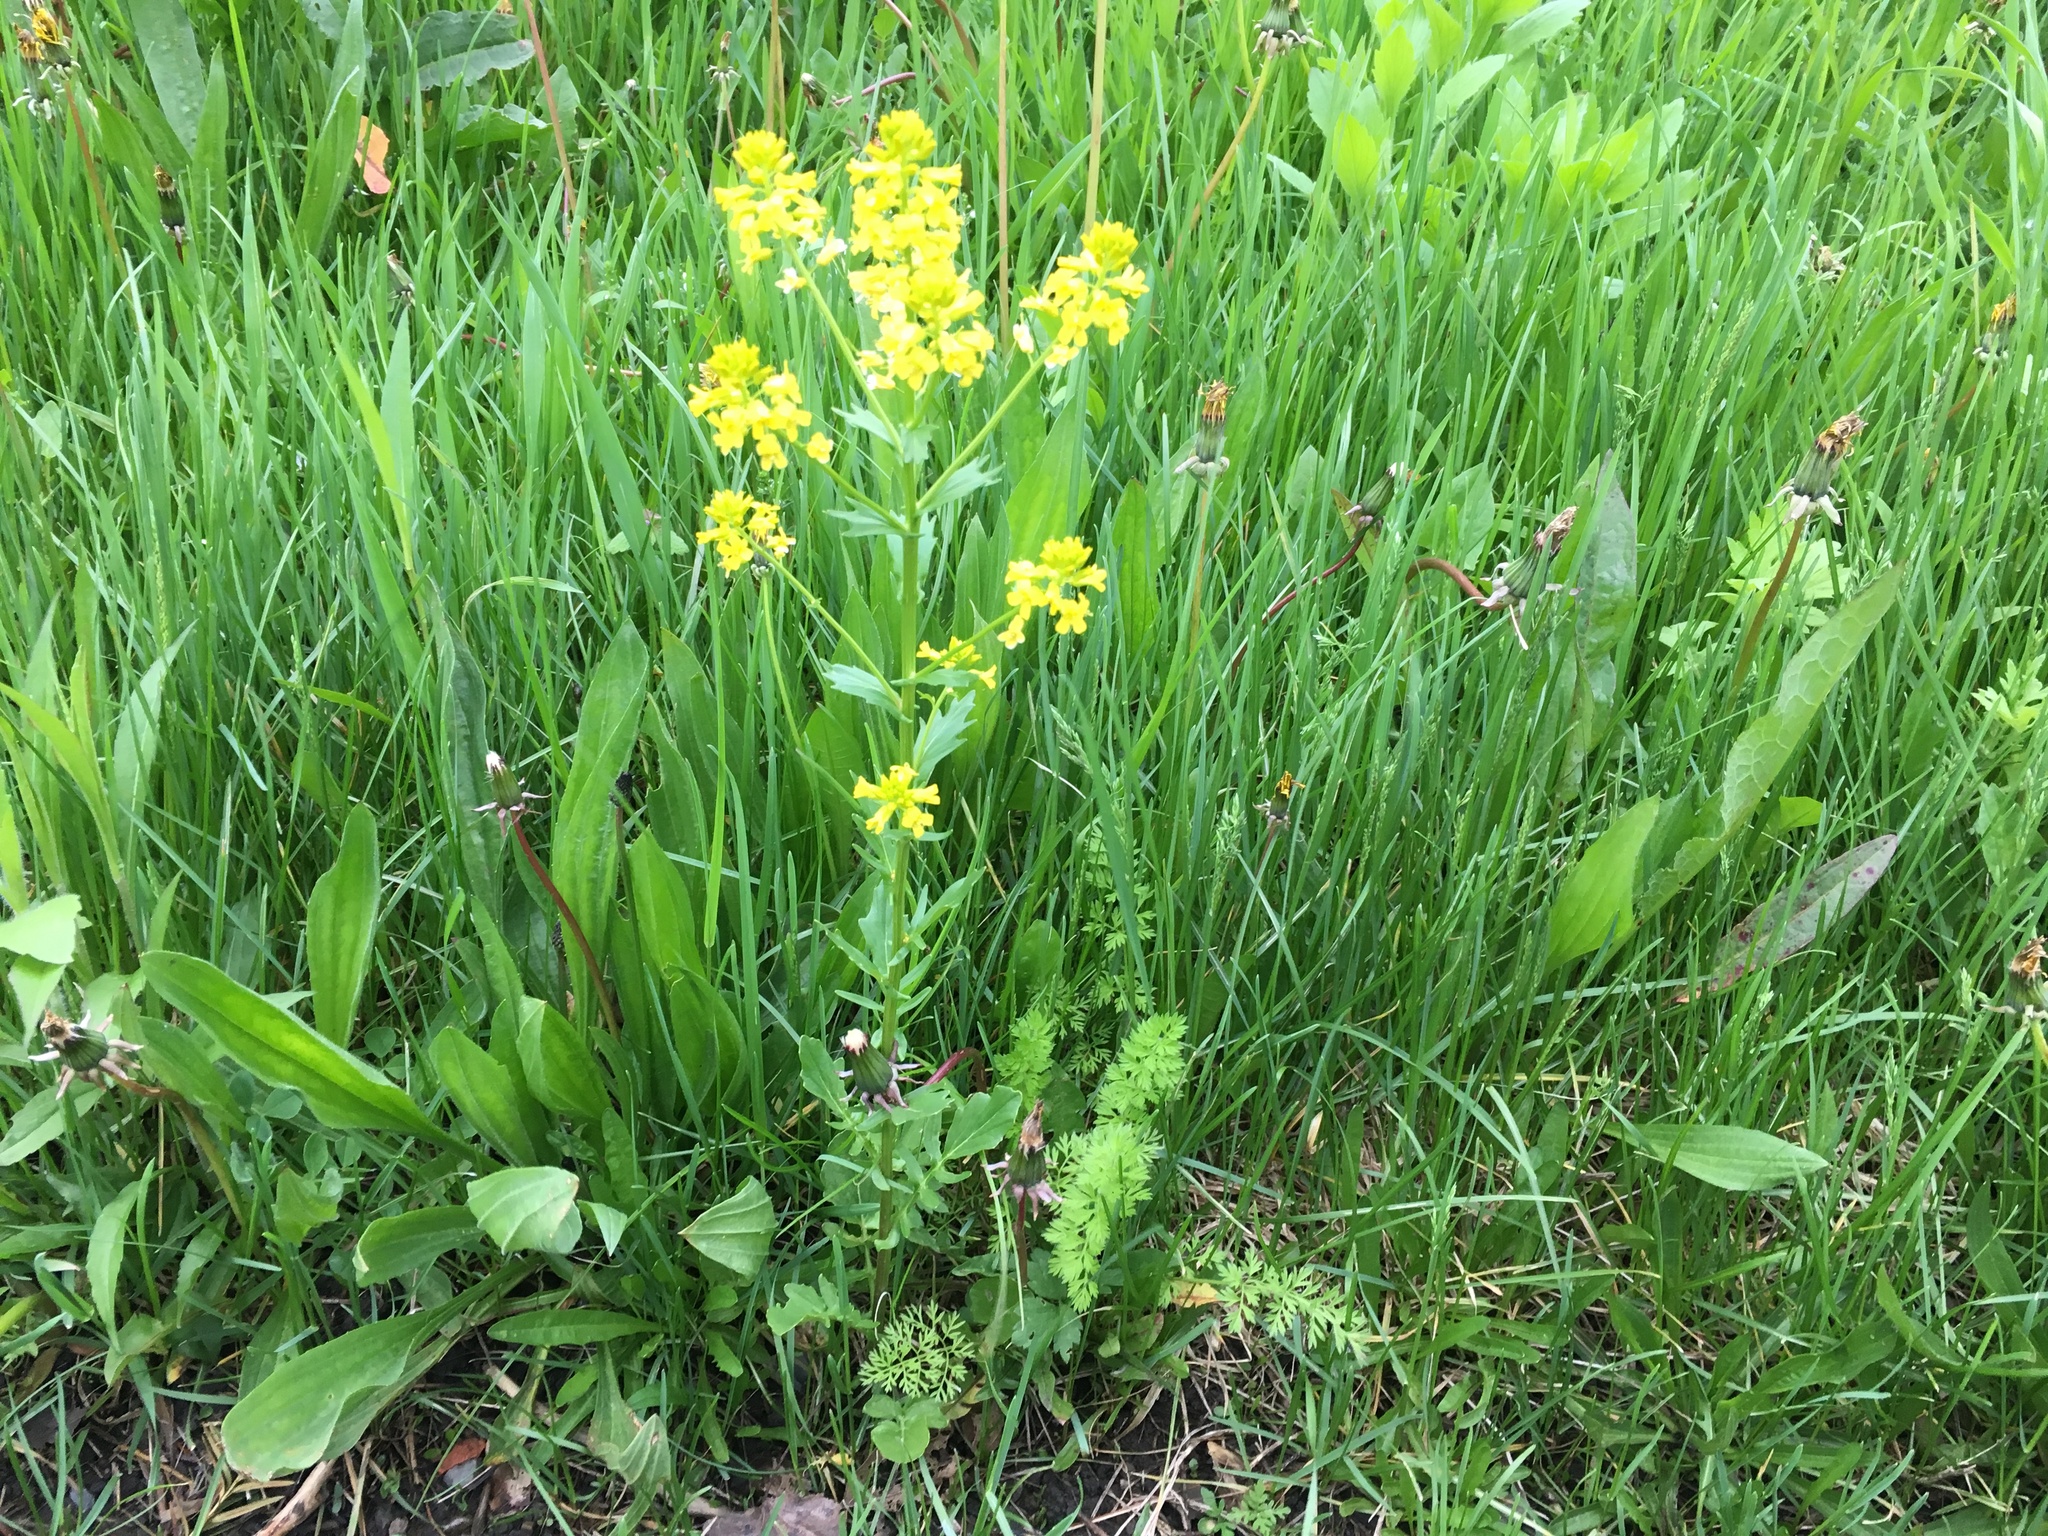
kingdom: Plantae
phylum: Tracheophyta
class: Magnoliopsida
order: Brassicales
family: Brassicaceae
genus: Barbarea
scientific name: Barbarea vulgaris
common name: Cressy-greens
